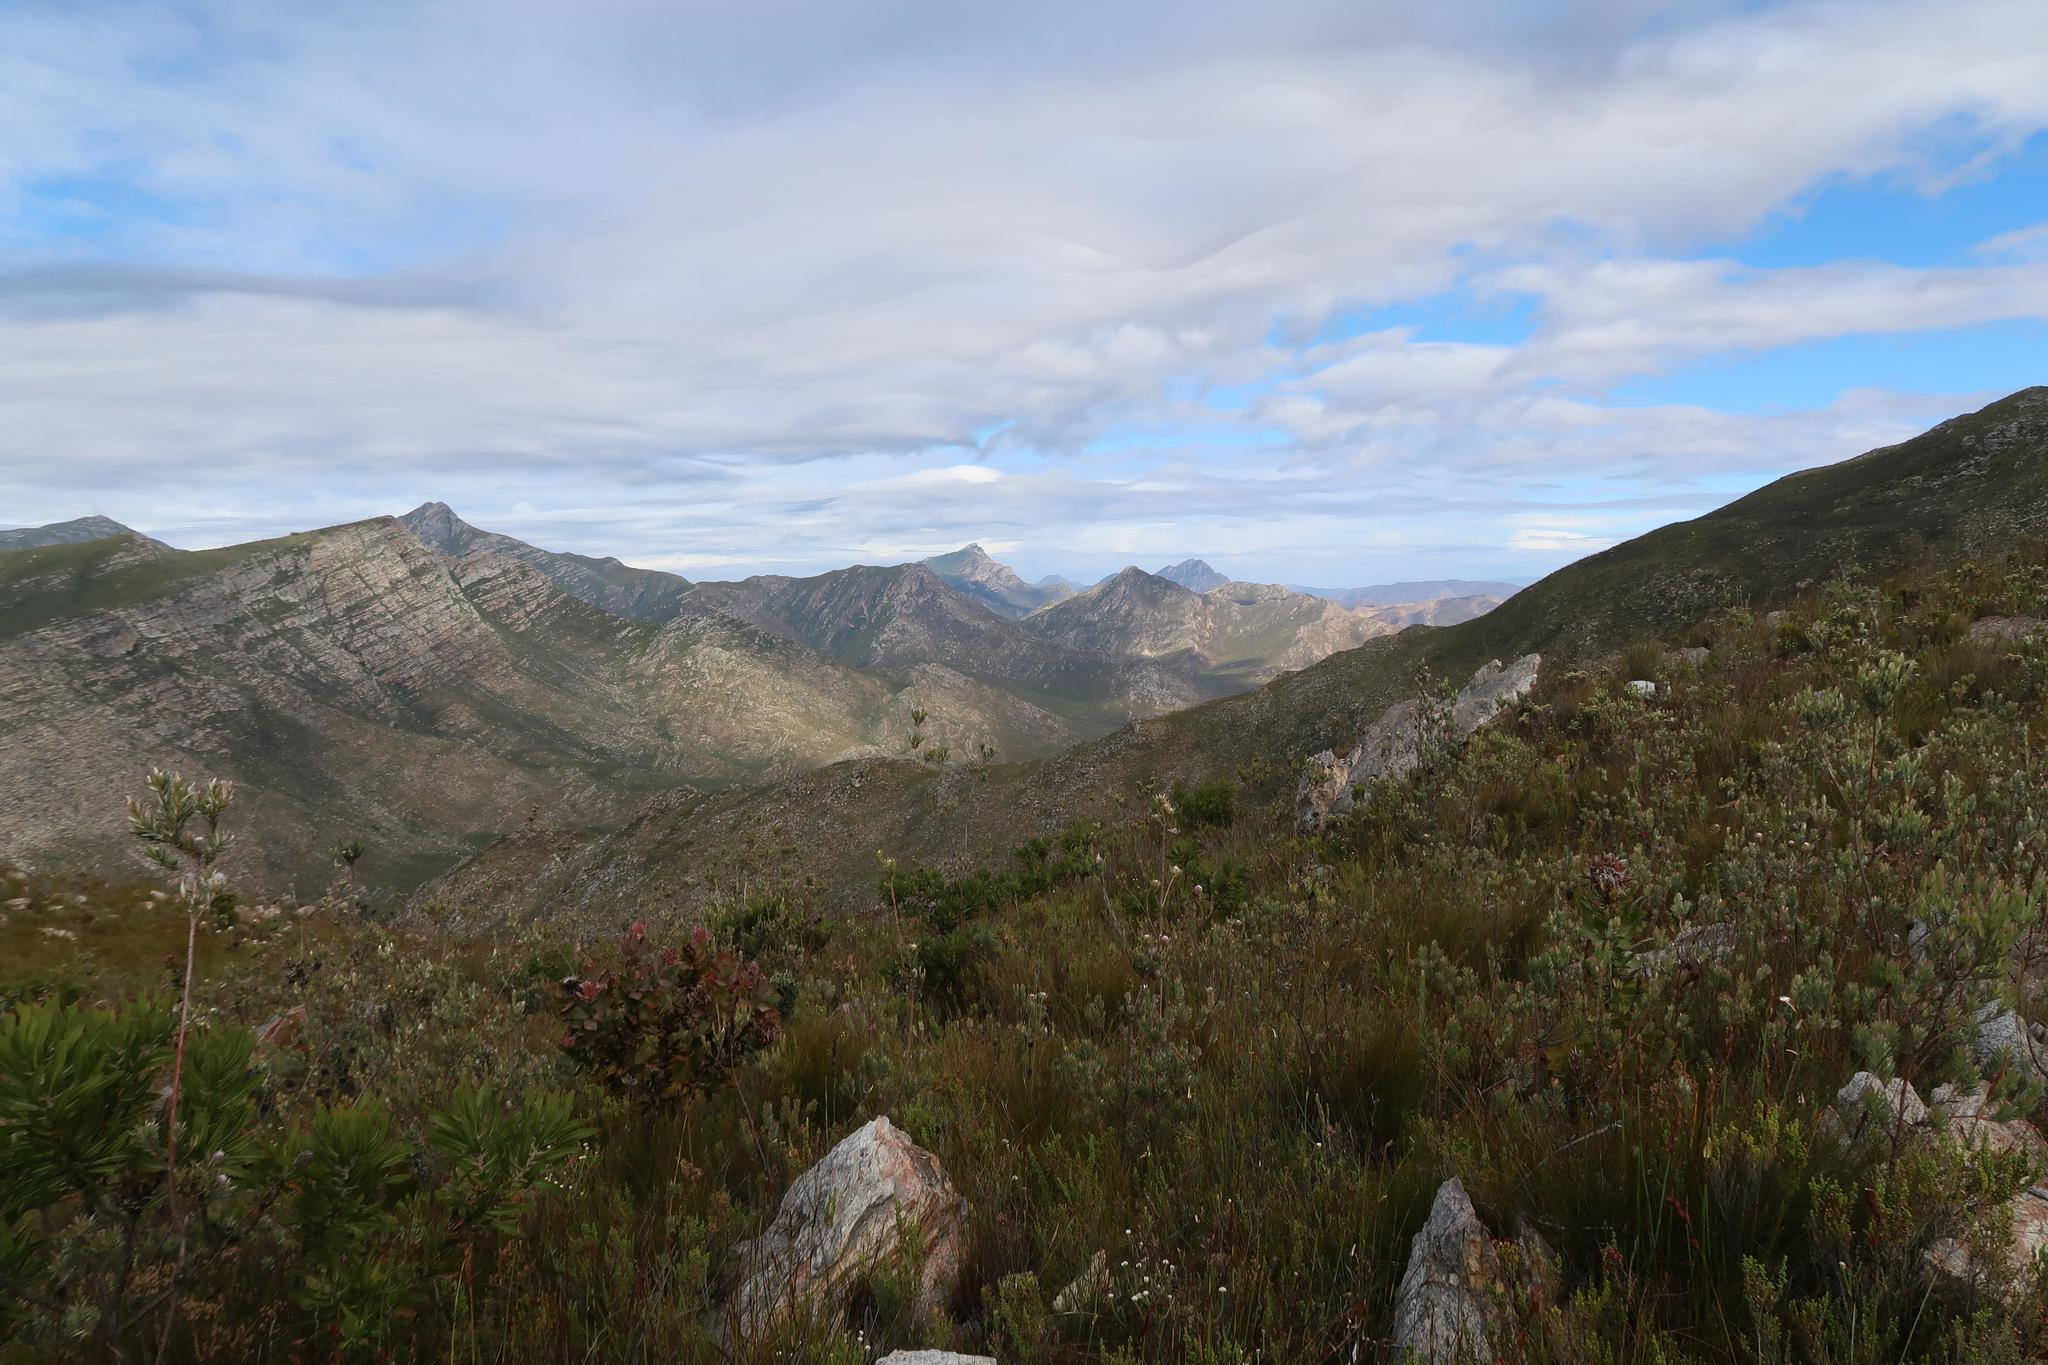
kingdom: Plantae
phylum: Tracheophyta
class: Magnoliopsida
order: Proteales
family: Proteaceae
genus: Leucadendron
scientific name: Leucadendron uliginosum
